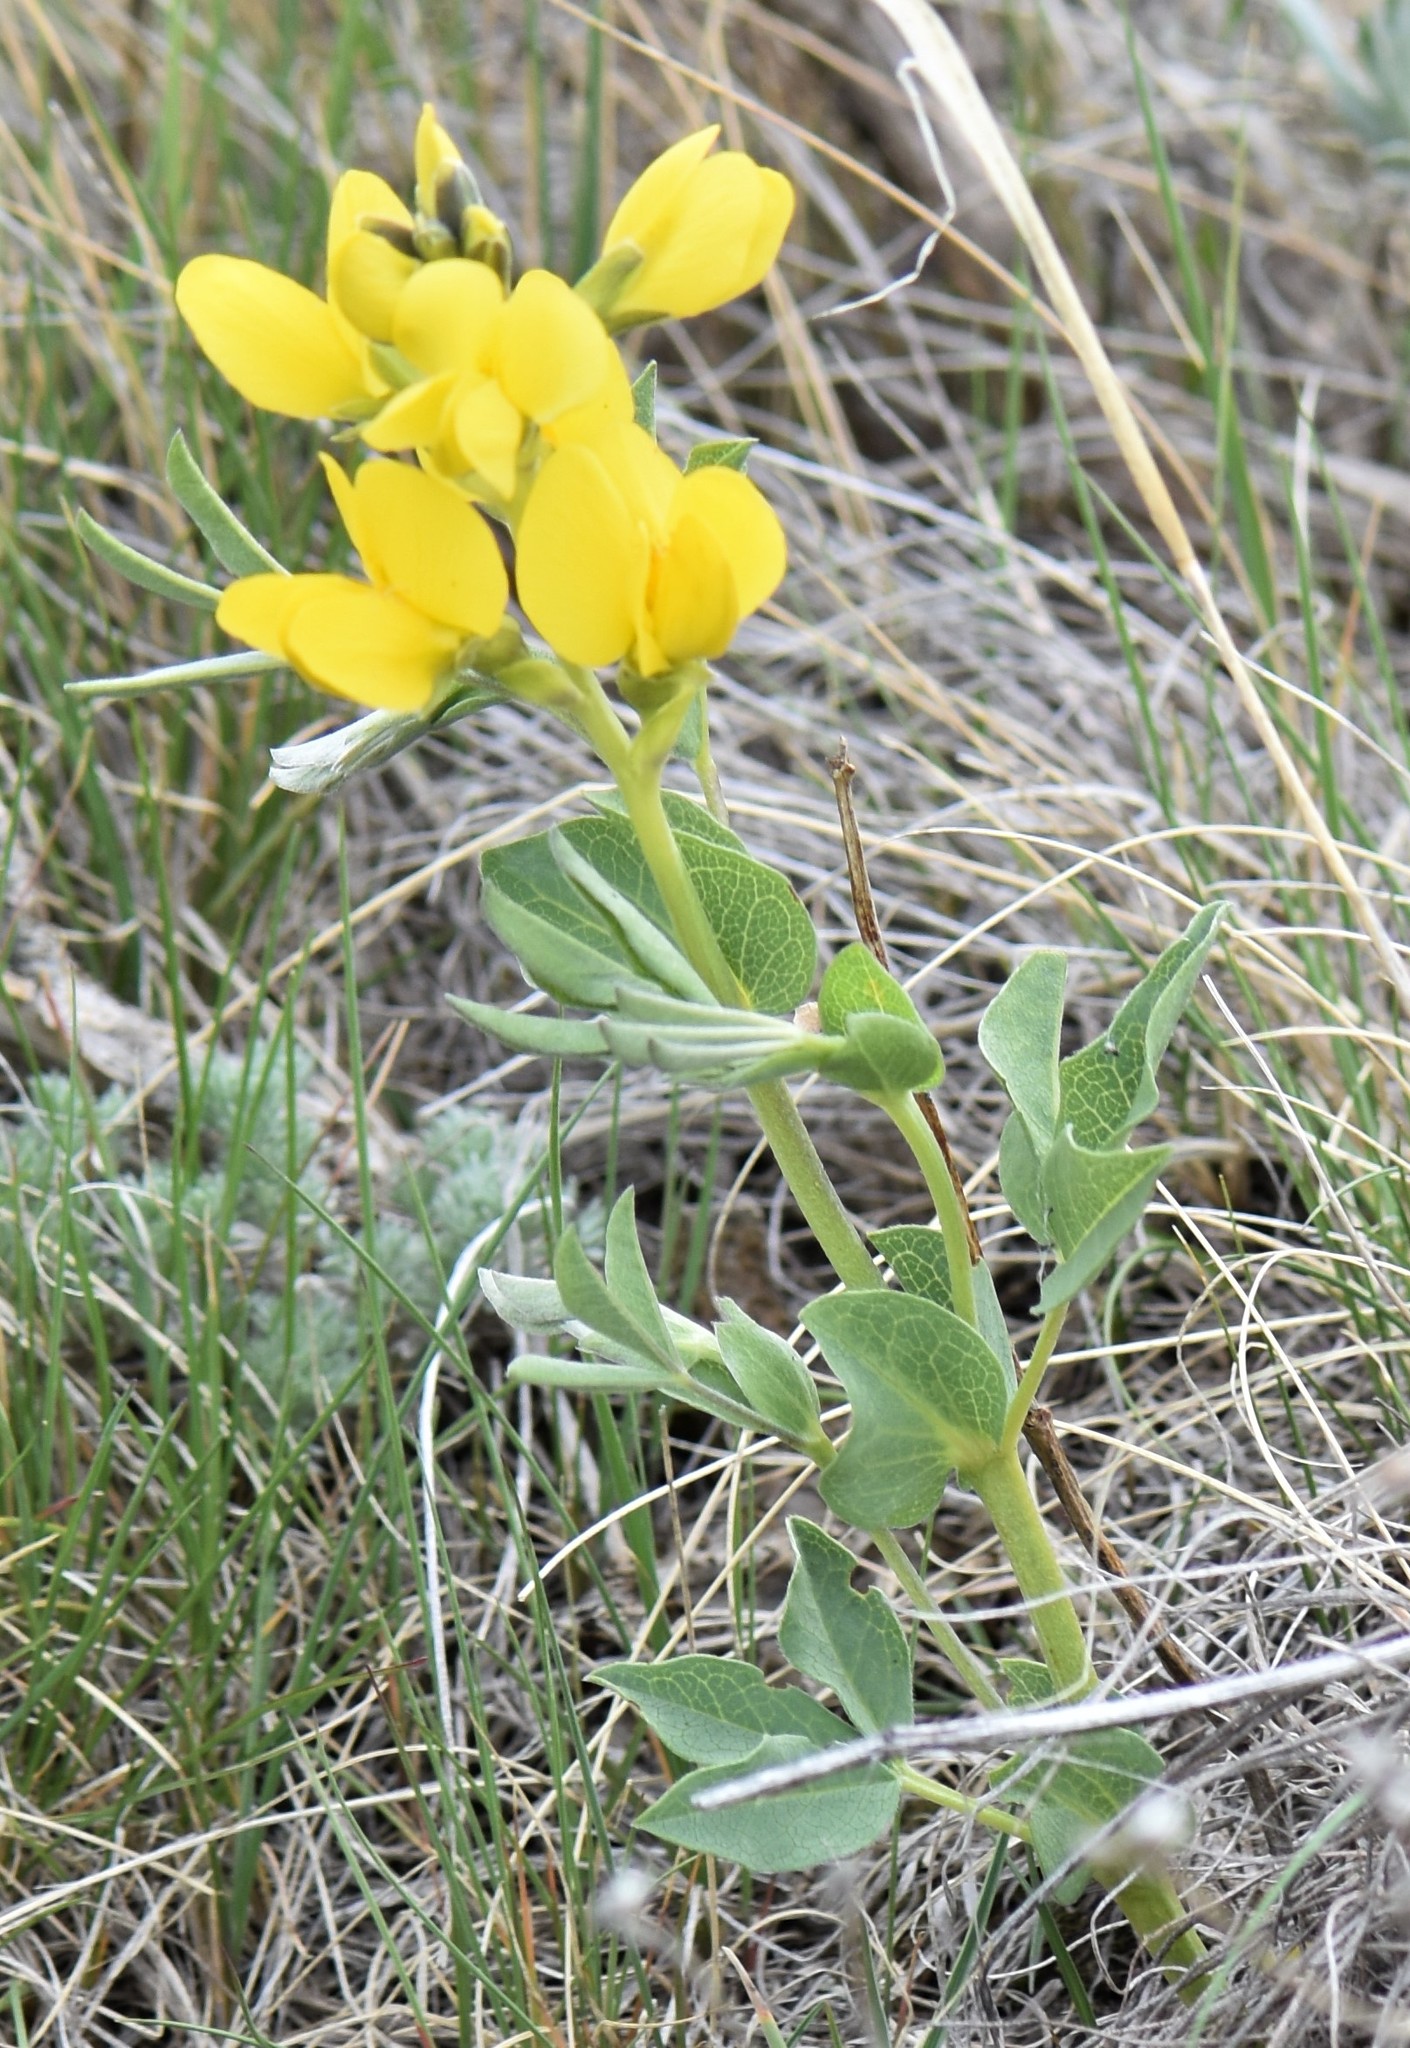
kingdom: Plantae
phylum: Tracheophyta
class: Magnoliopsida
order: Fabales
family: Fabaceae
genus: Thermopsis
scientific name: Thermopsis rhombifolia
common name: Circle-pod-pea
